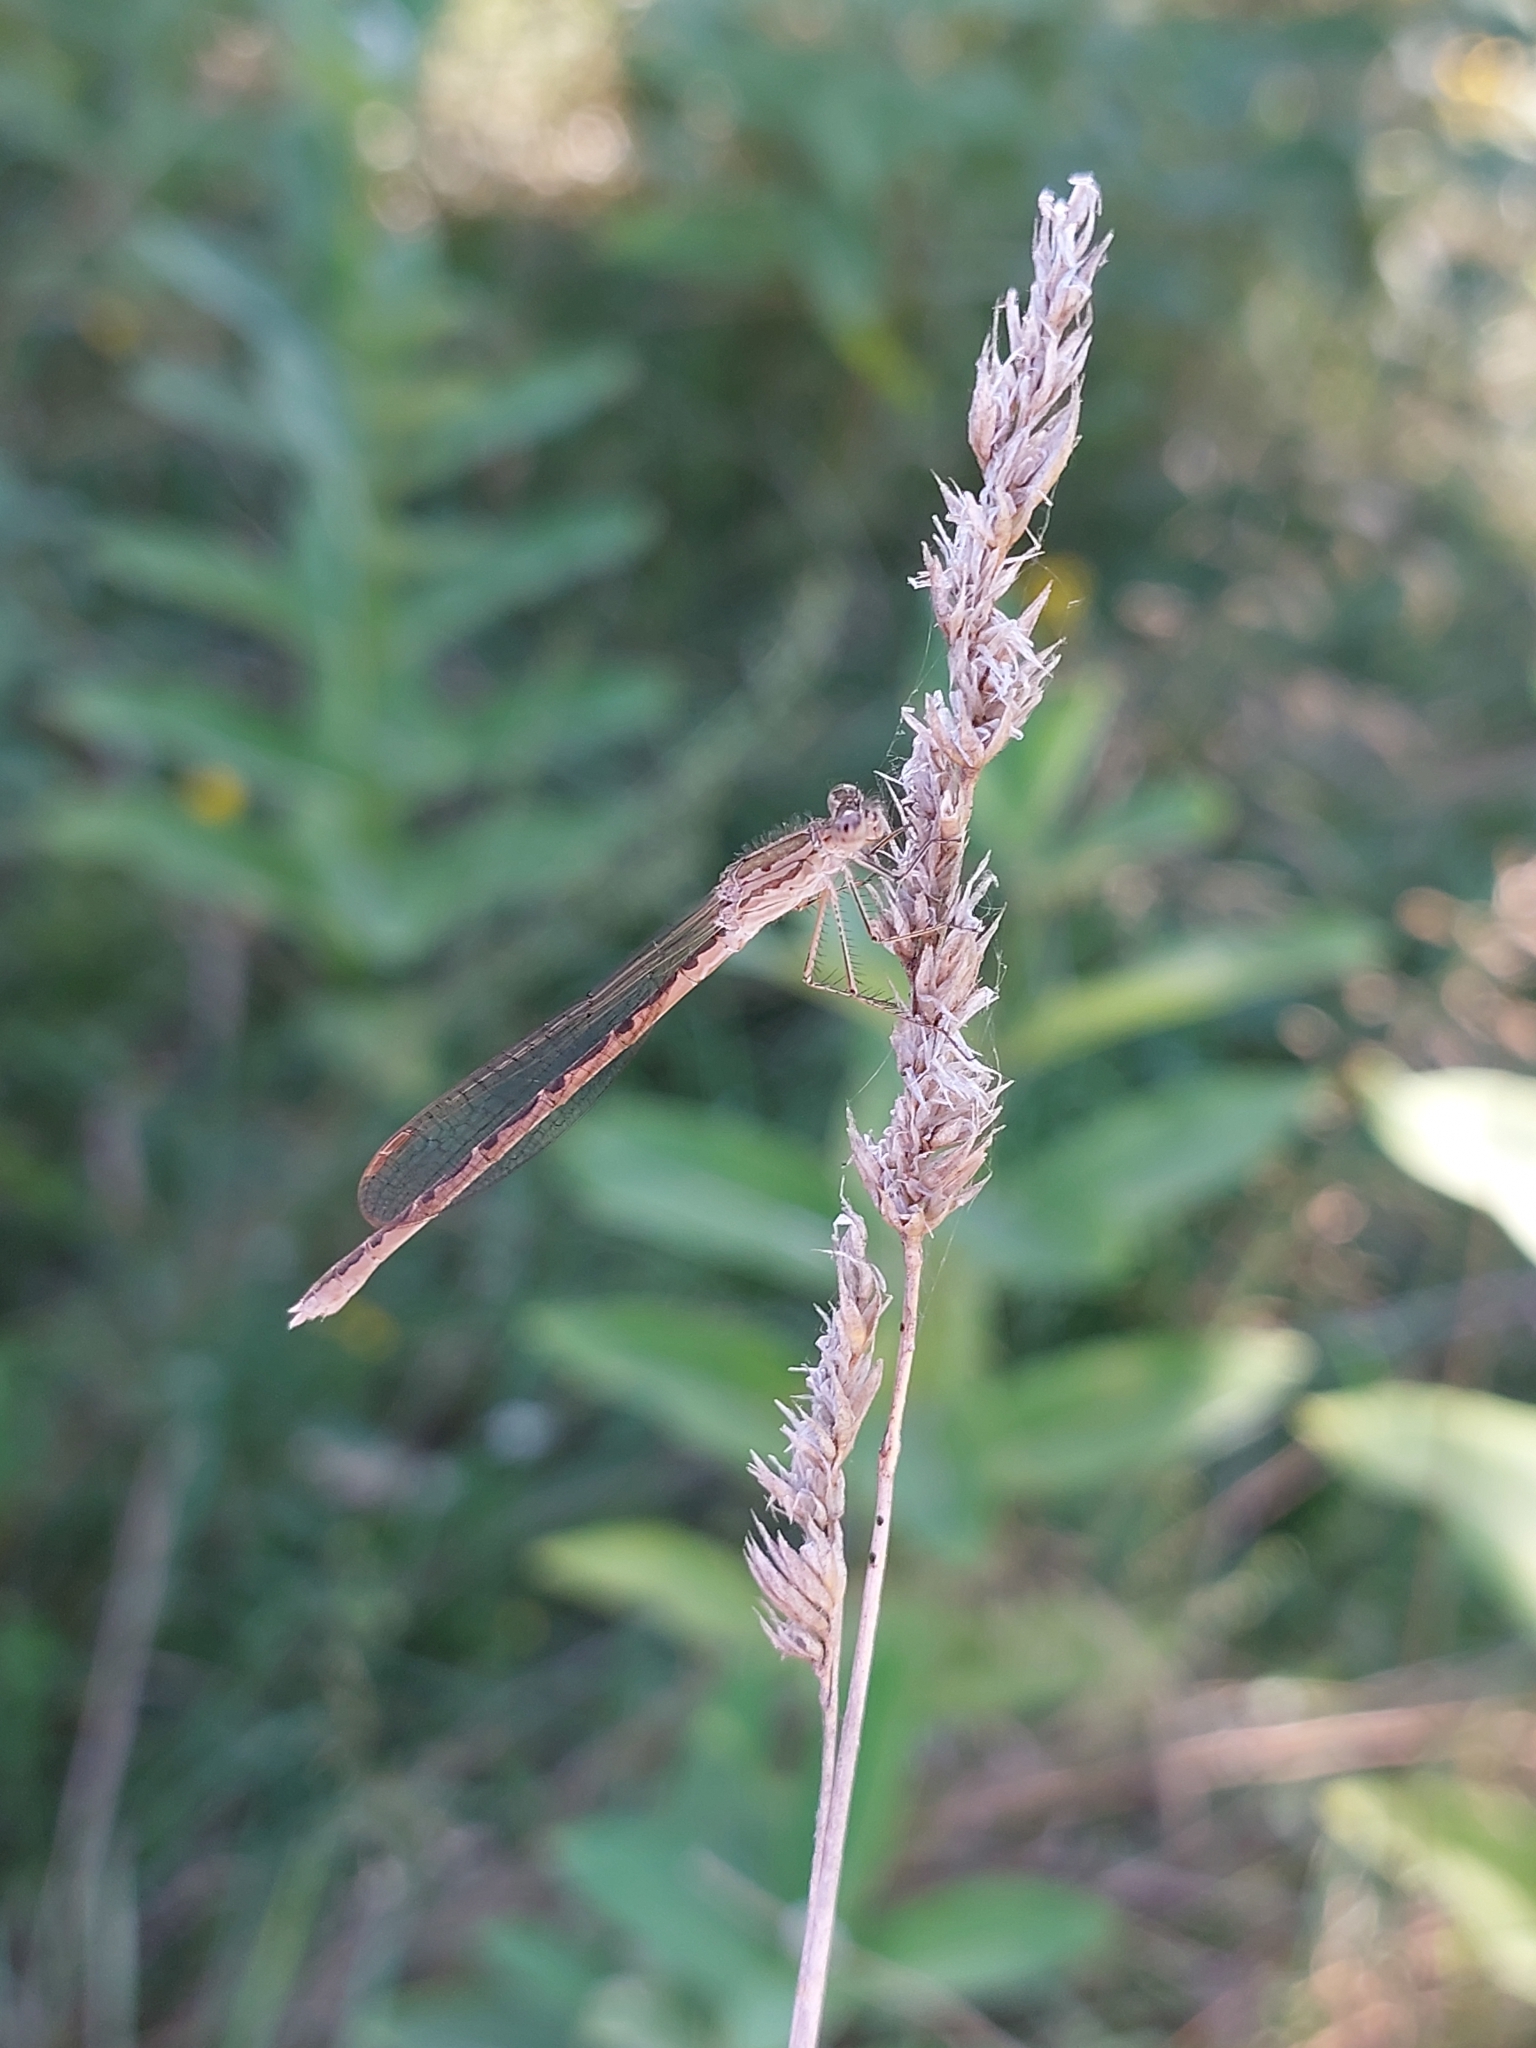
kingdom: Animalia
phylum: Arthropoda
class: Insecta
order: Odonata
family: Lestidae
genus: Sympecma
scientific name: Sympecma paedisca
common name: Siberian winter damsel
